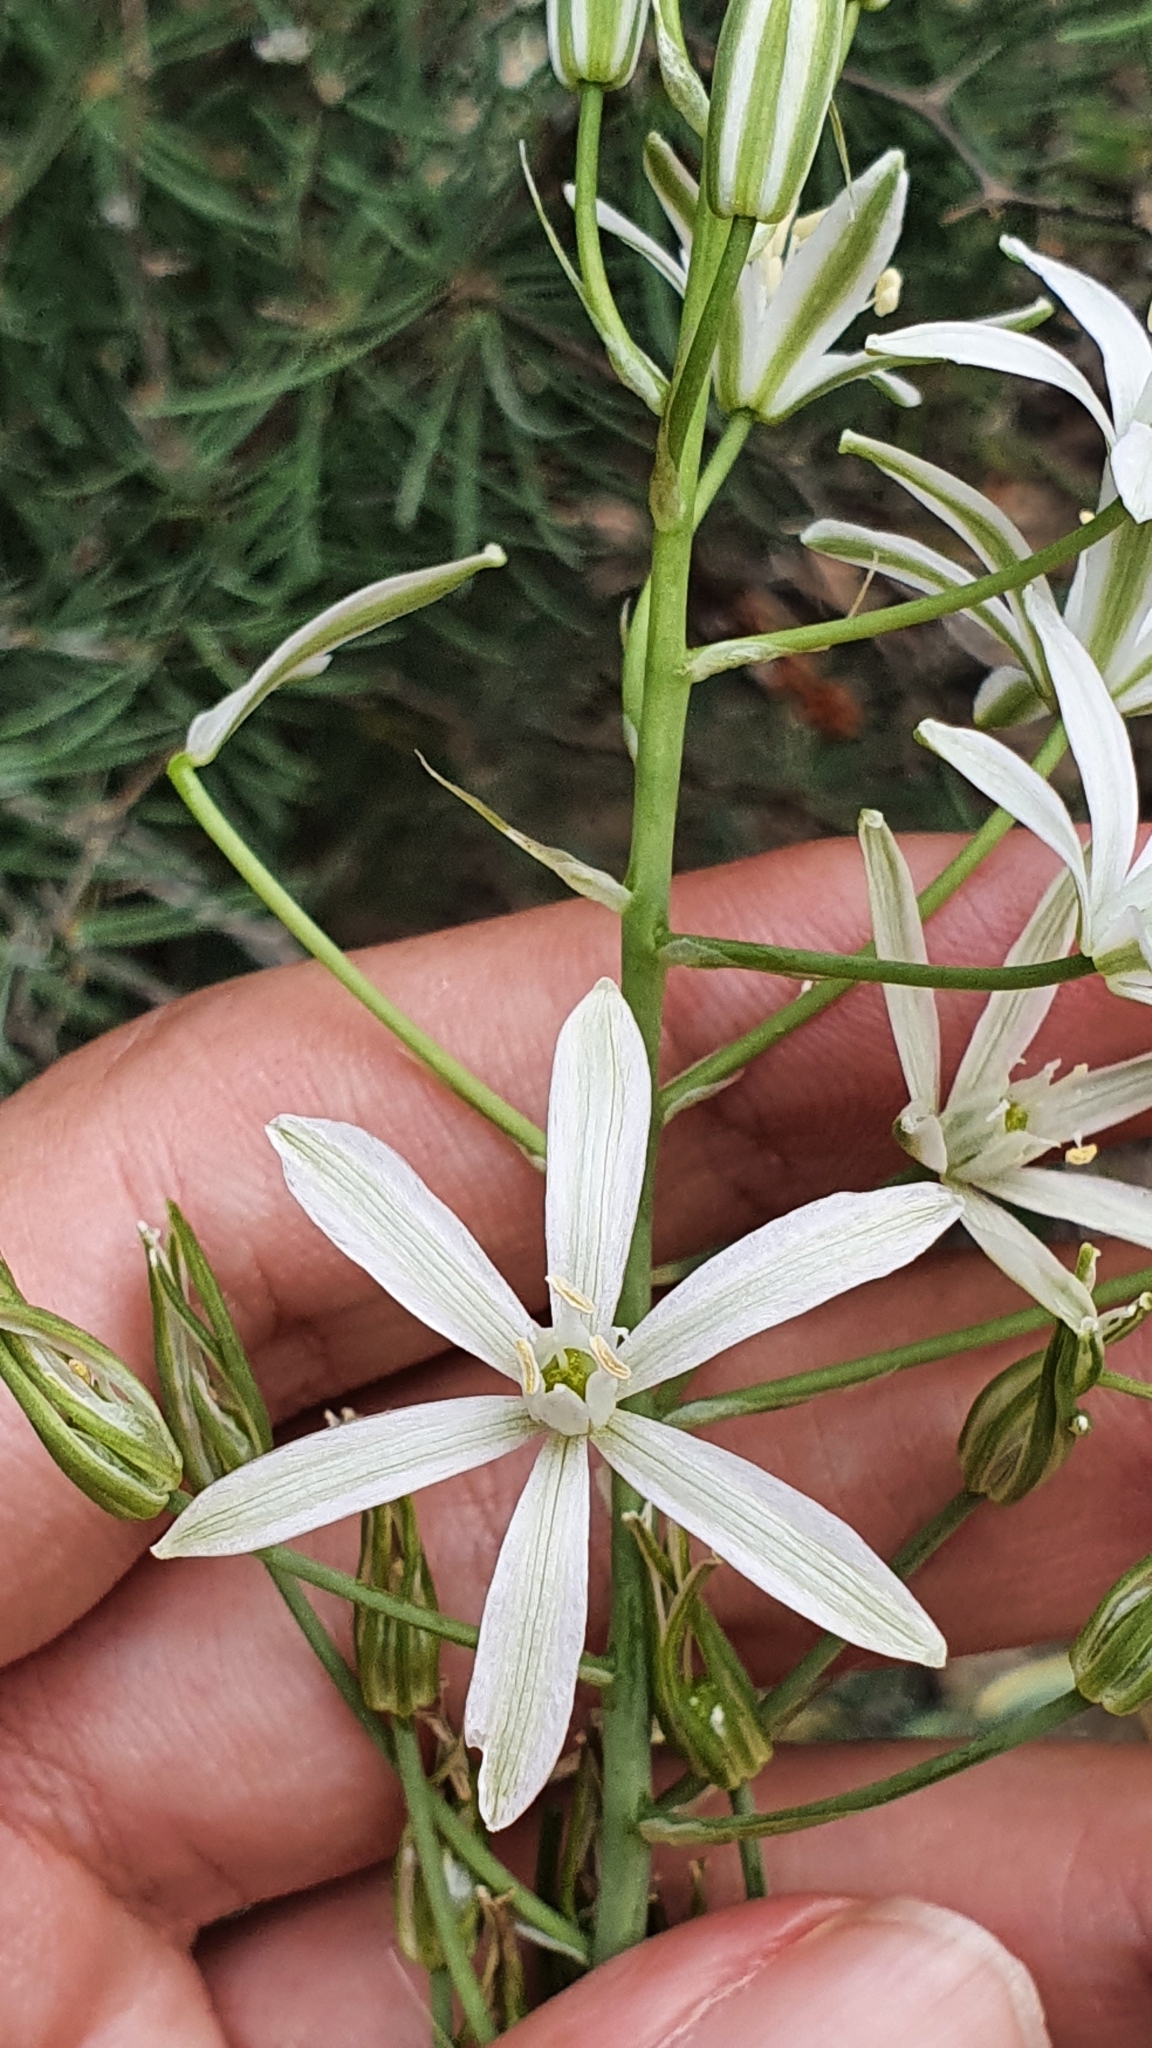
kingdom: Plantae
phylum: Tracheophyta
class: Liliopsida
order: Asparagales
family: Asparagaceae
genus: Ornithogalum
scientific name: Ornithogalum narbonense
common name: Bath-asparagus
